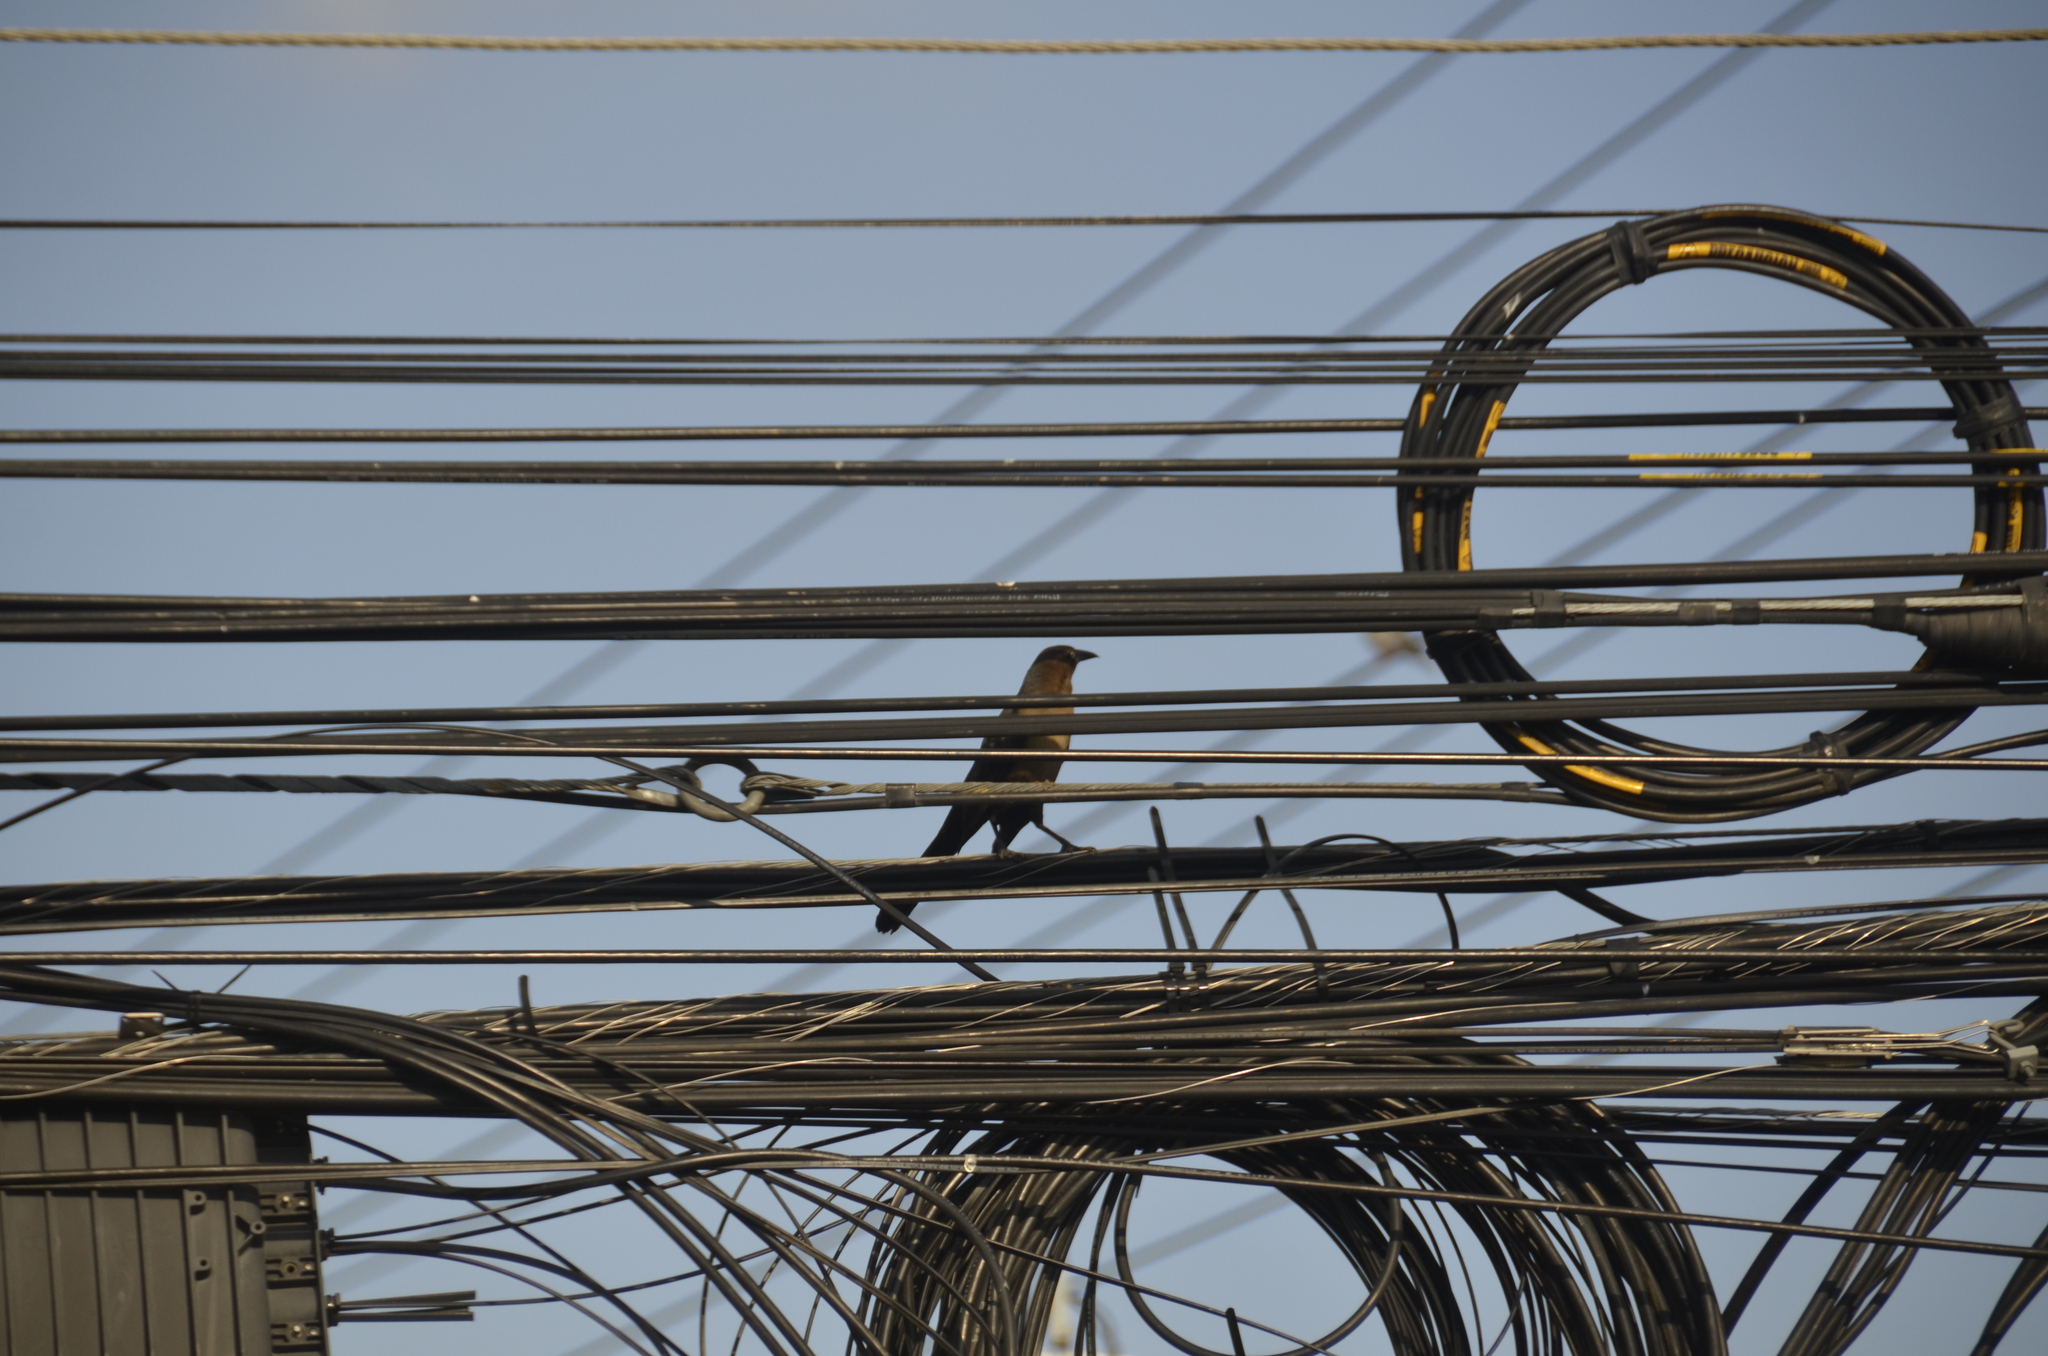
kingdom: Animalia
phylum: Chordata
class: Aves
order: Passeriformes
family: Icteridae
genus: Quiscalus
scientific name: Quiscalus mexicanus
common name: Great-tailed grackle
